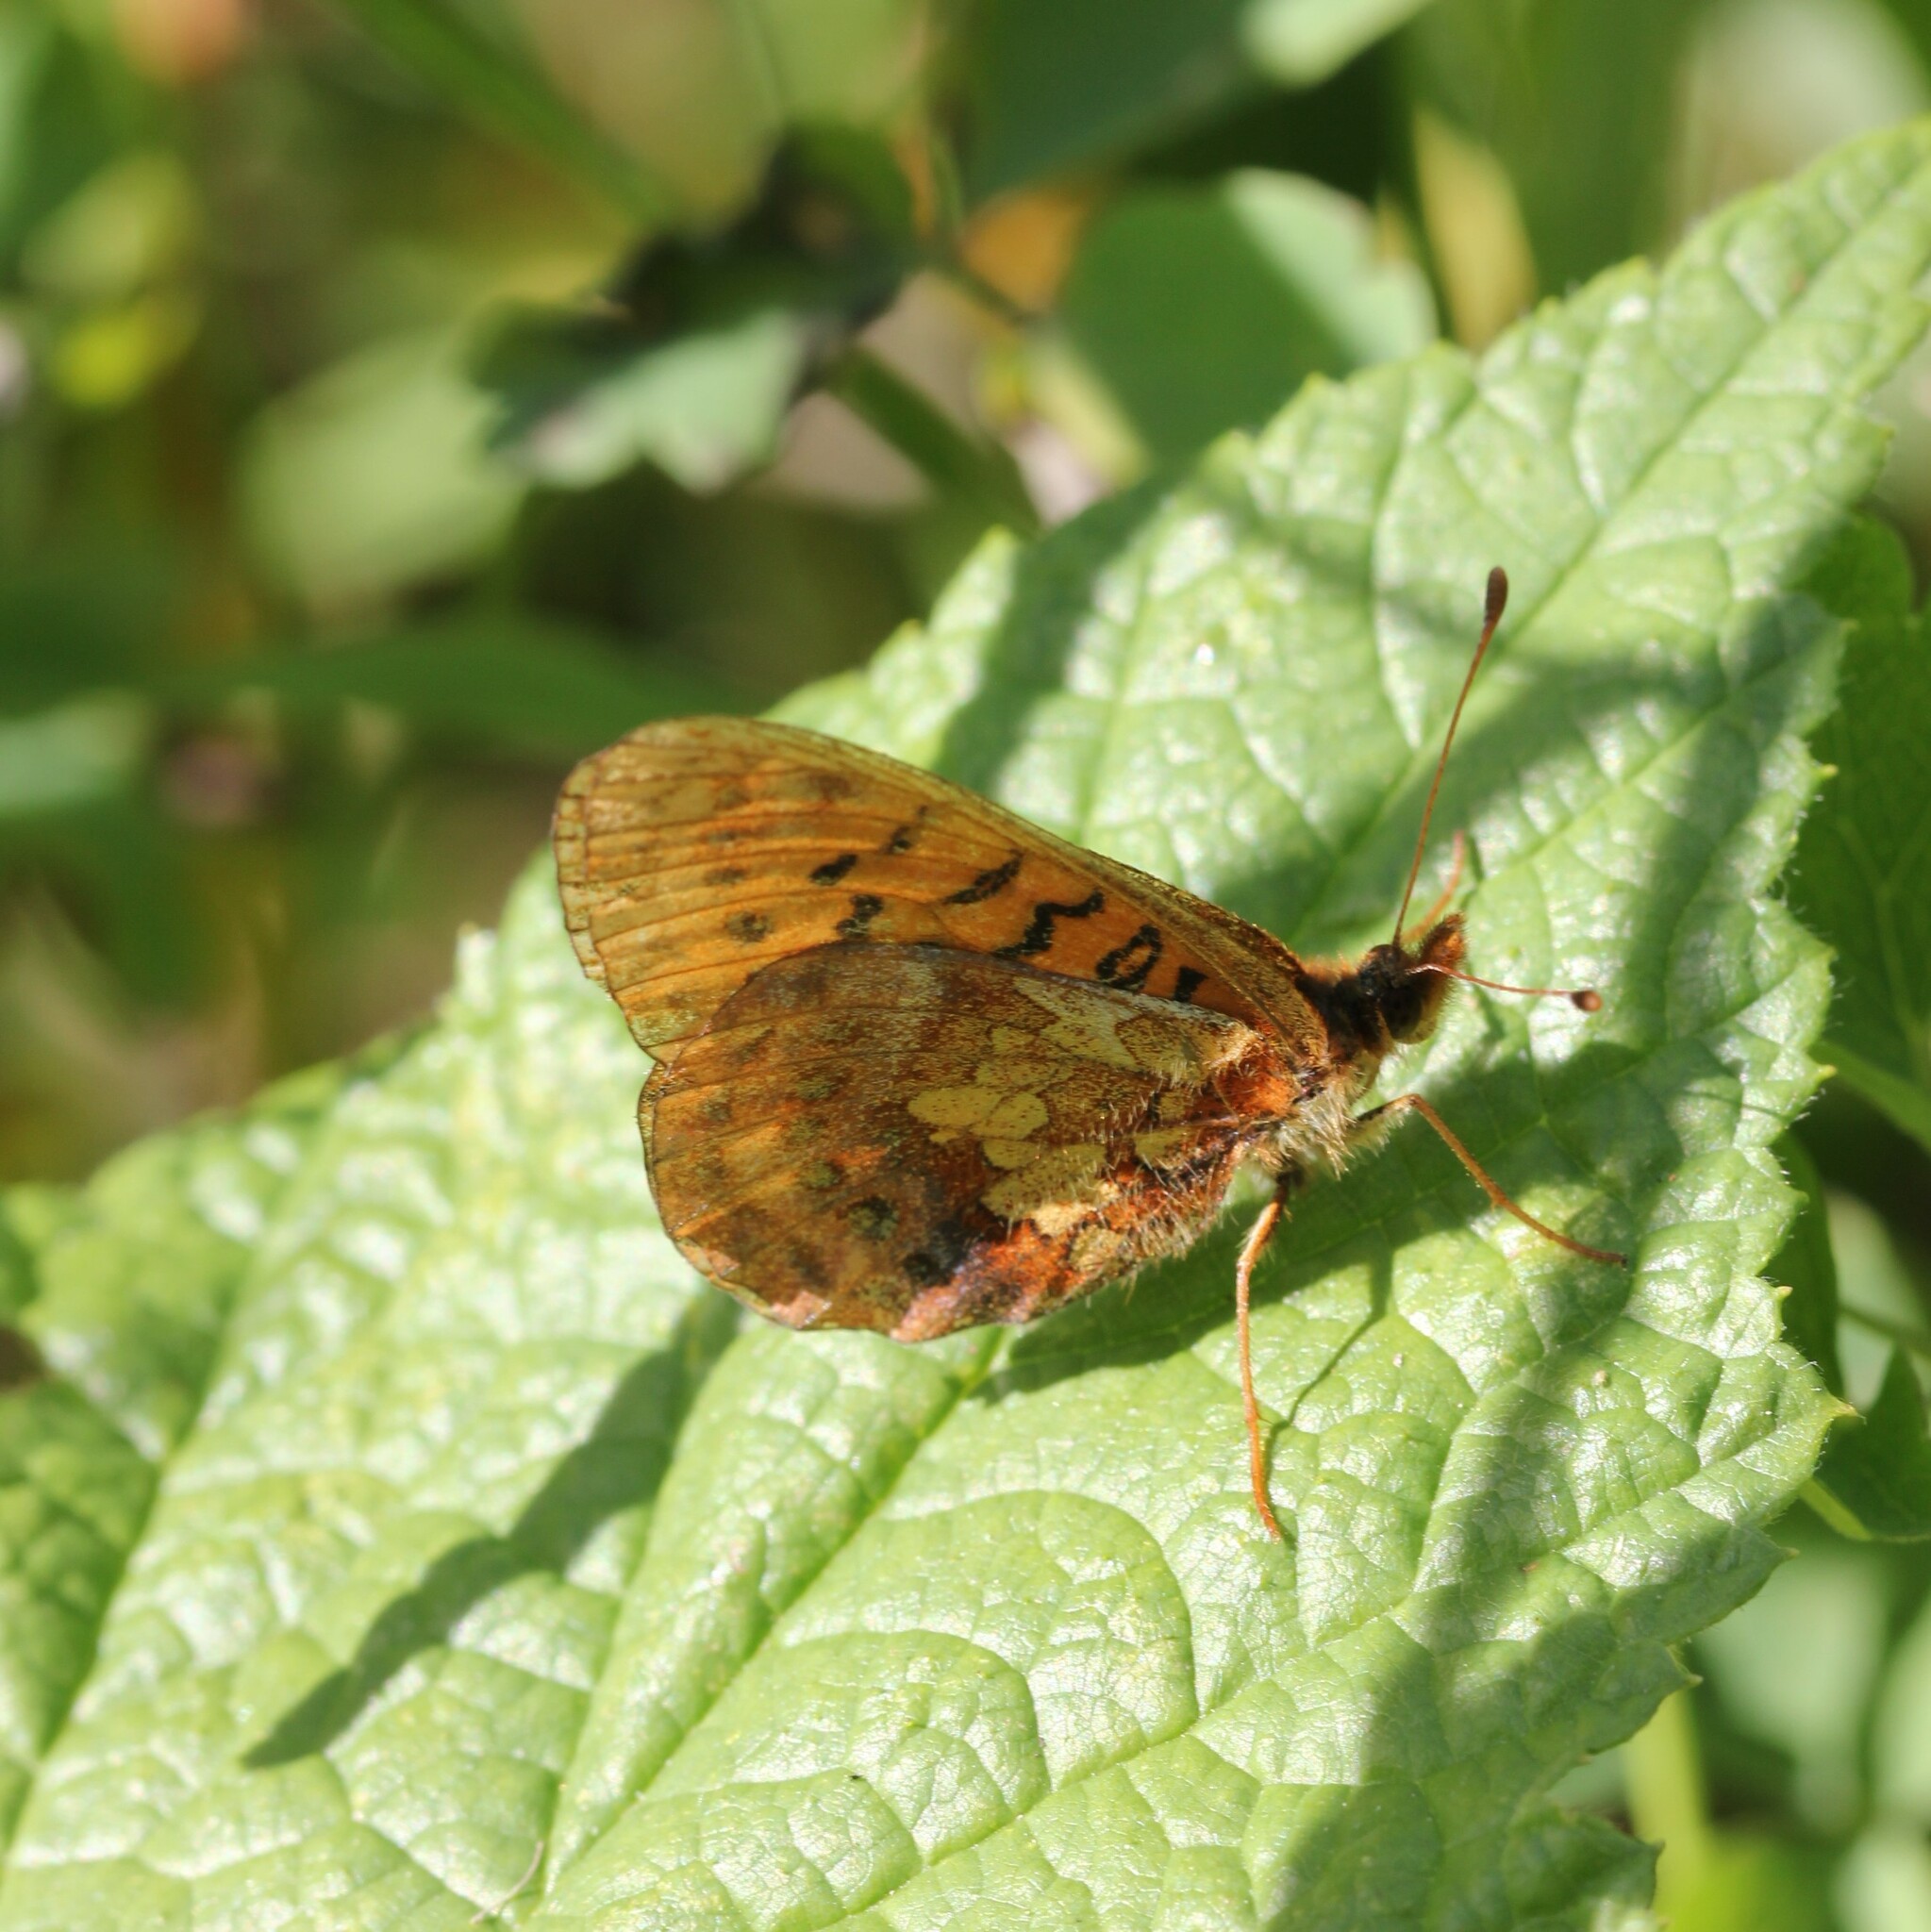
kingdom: Animalia
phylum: Arthropoda
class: Insecta
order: Lepidoptera
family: Nymphalidae
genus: Boloria
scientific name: Boloria epithore
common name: Pacific fritillary
